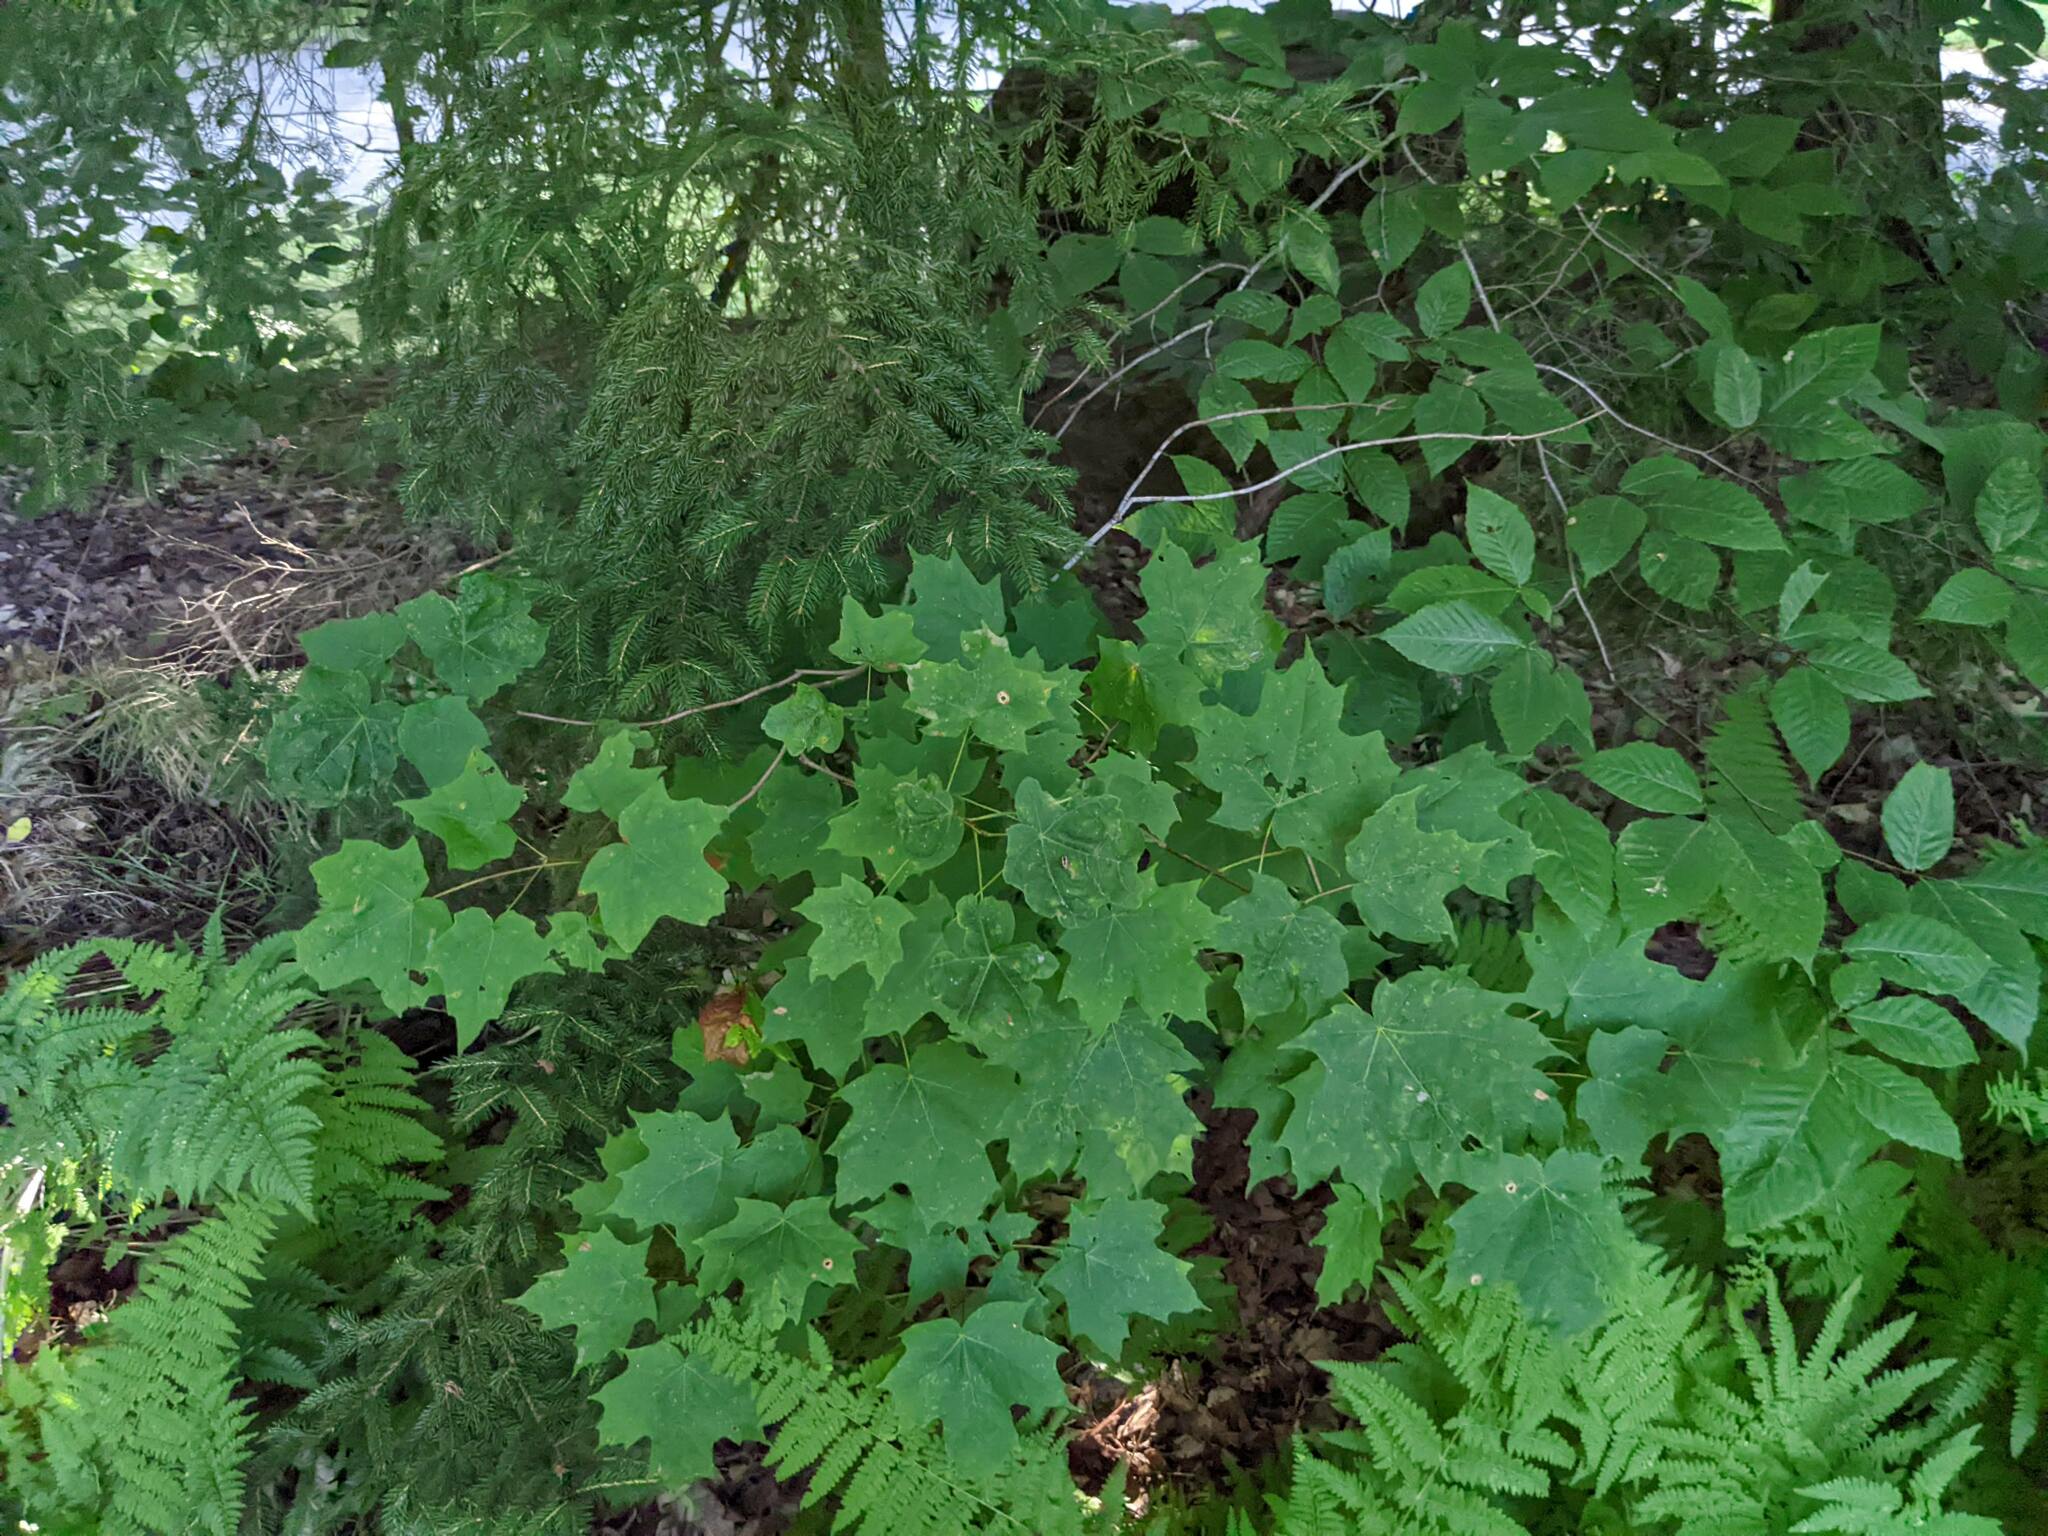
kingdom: Plantae
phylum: Tracheophyta
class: Magnoliopsida
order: Sapindales
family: Sapindaceae
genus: Acer
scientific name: Acer saccharum
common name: Sugar maple
